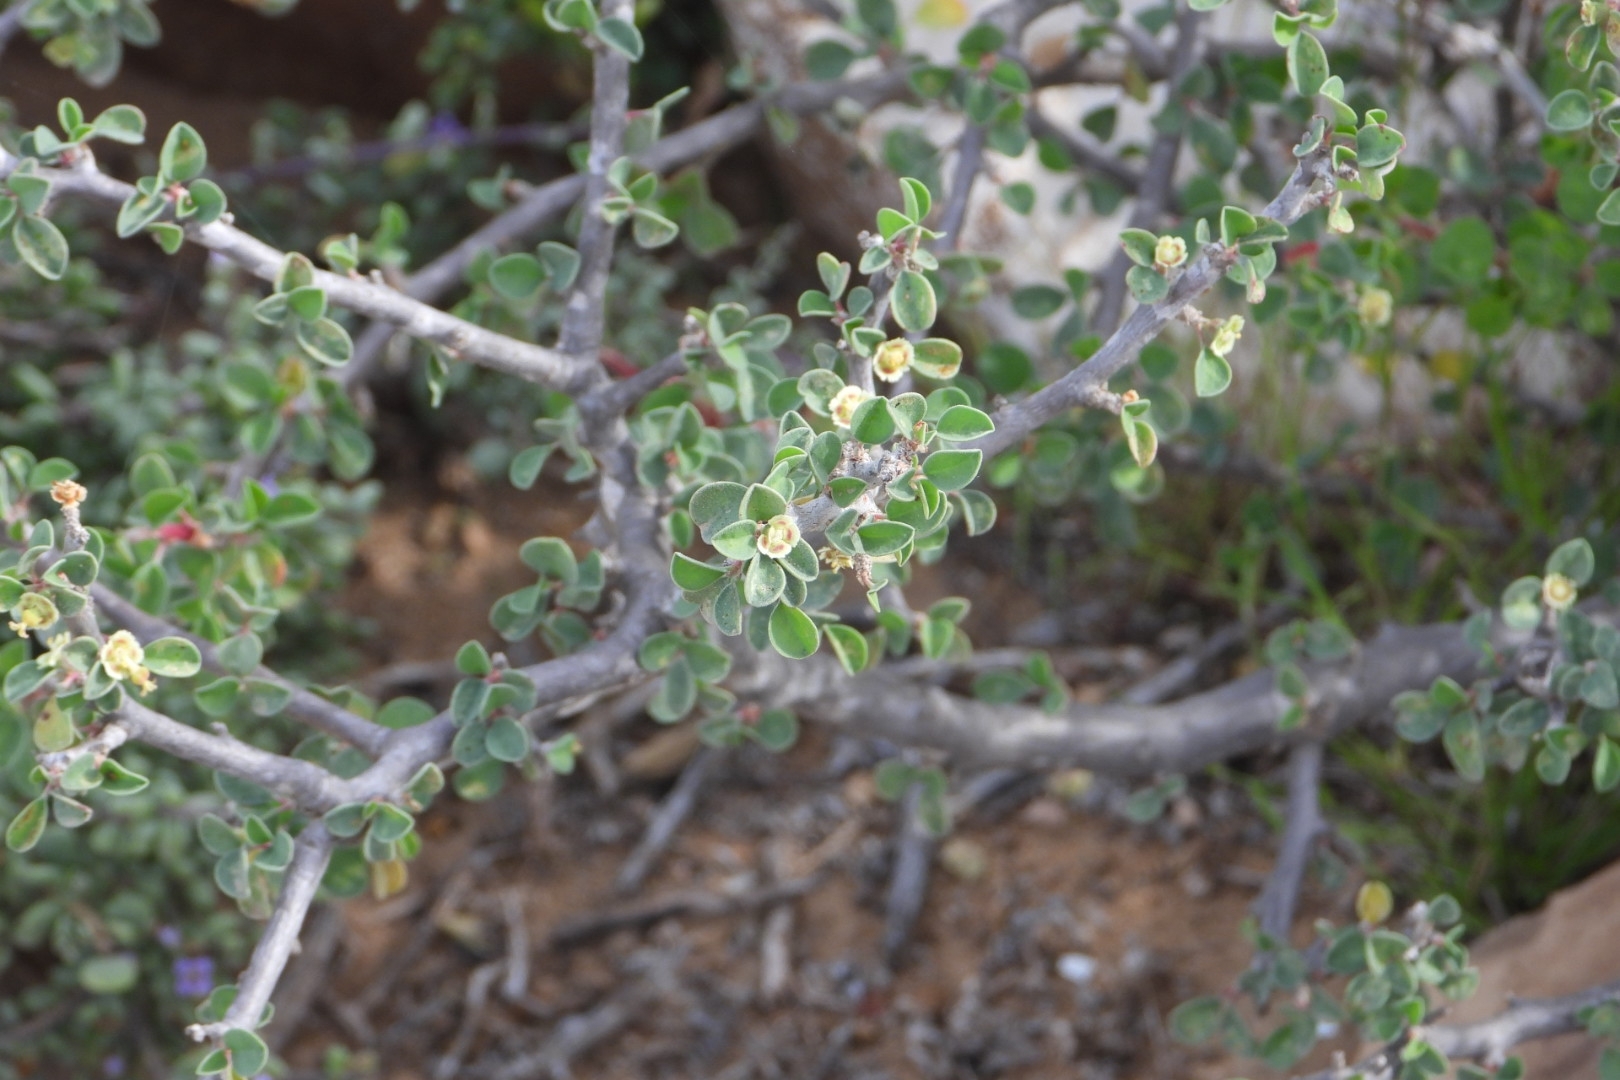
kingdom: Plantae
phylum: Tracheophyta
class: Magnoliopsida
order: Malpighiales
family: Euphorbiaceae
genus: Euphorbia
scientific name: Euphorbia misera
